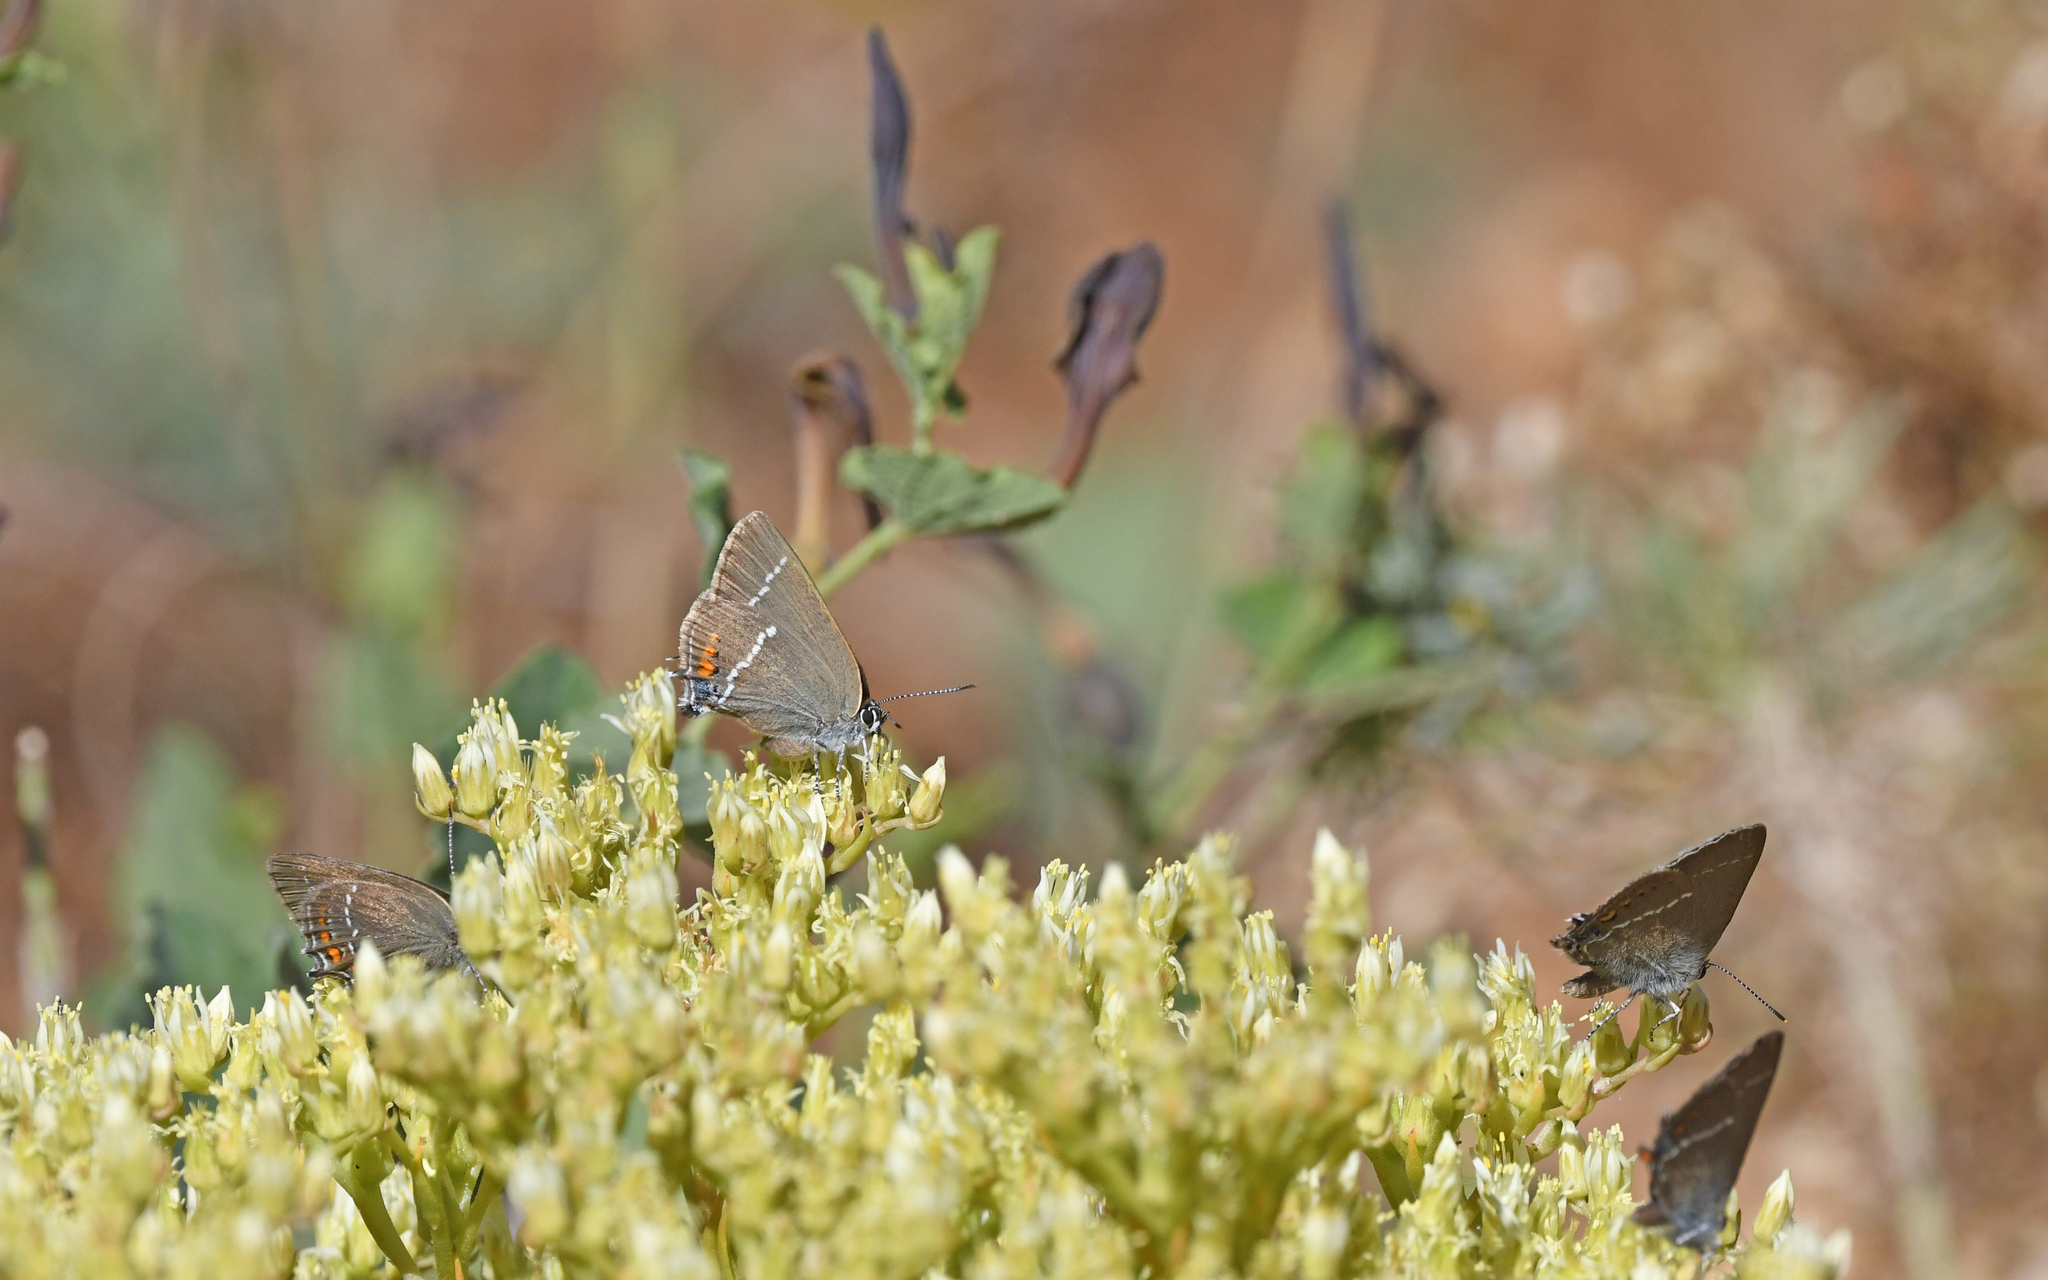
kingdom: Animalia
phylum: Arthropoda
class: Insecta
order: Lepidoptera
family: Lycaenidae
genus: Tuttiola
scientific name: Tuttiola spini
